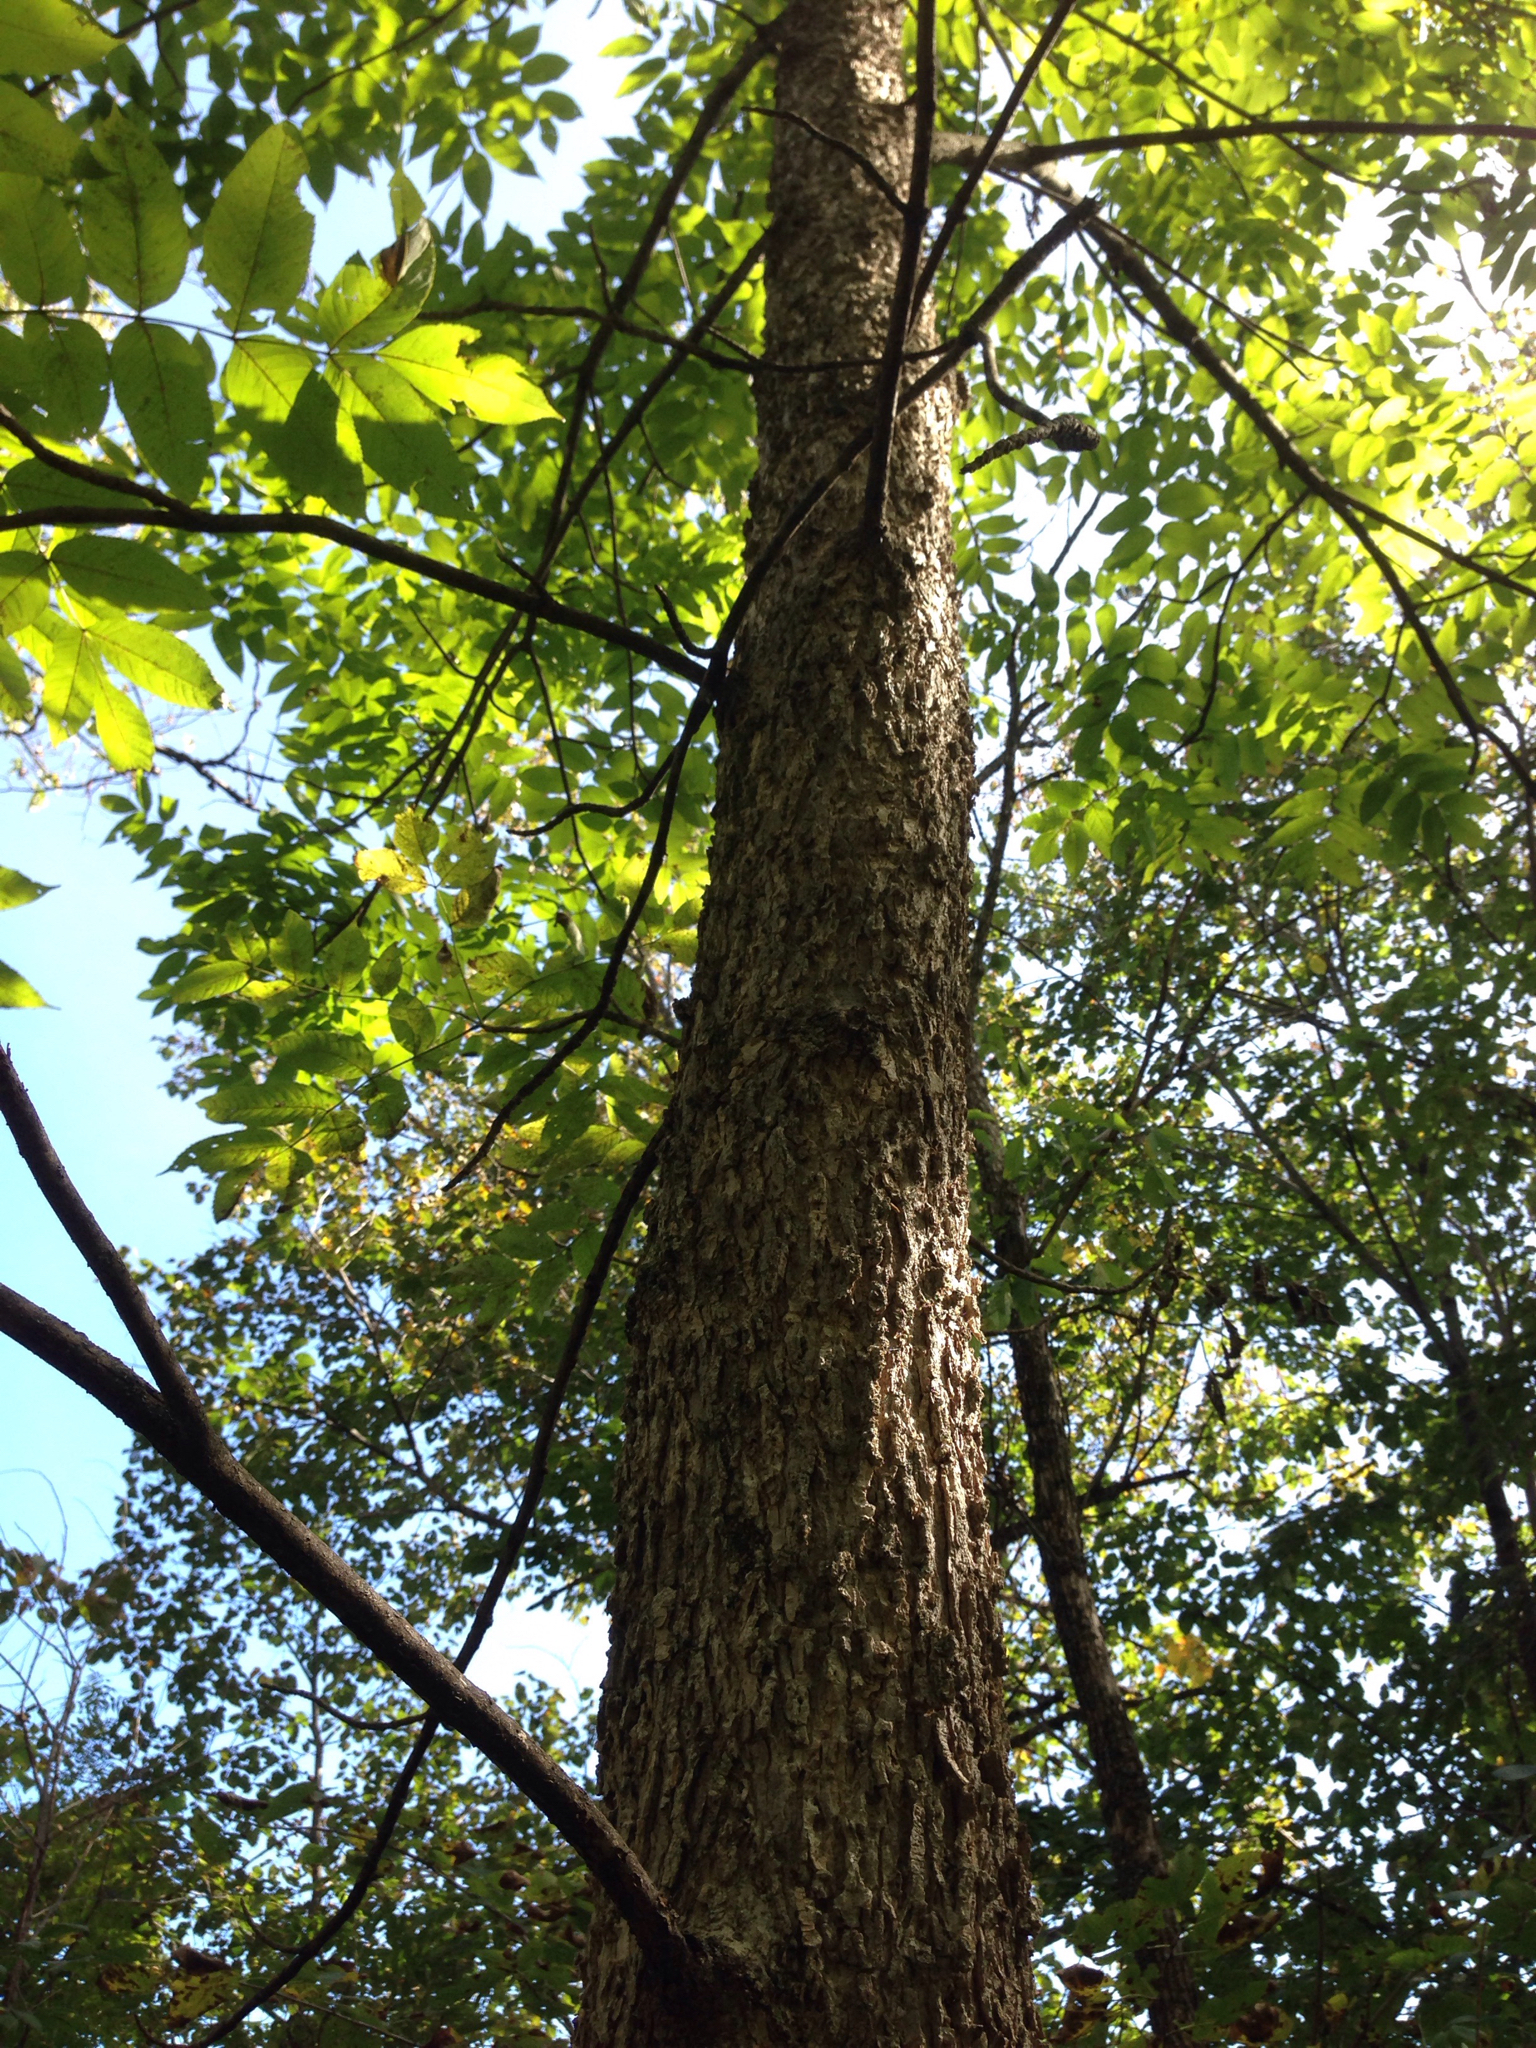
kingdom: Plantae
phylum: Tracheophyta
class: Magnoliopsida
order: Lamiales
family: Oleaceae
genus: Fraxinus
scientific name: Fraxinus nigra
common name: Black ash
